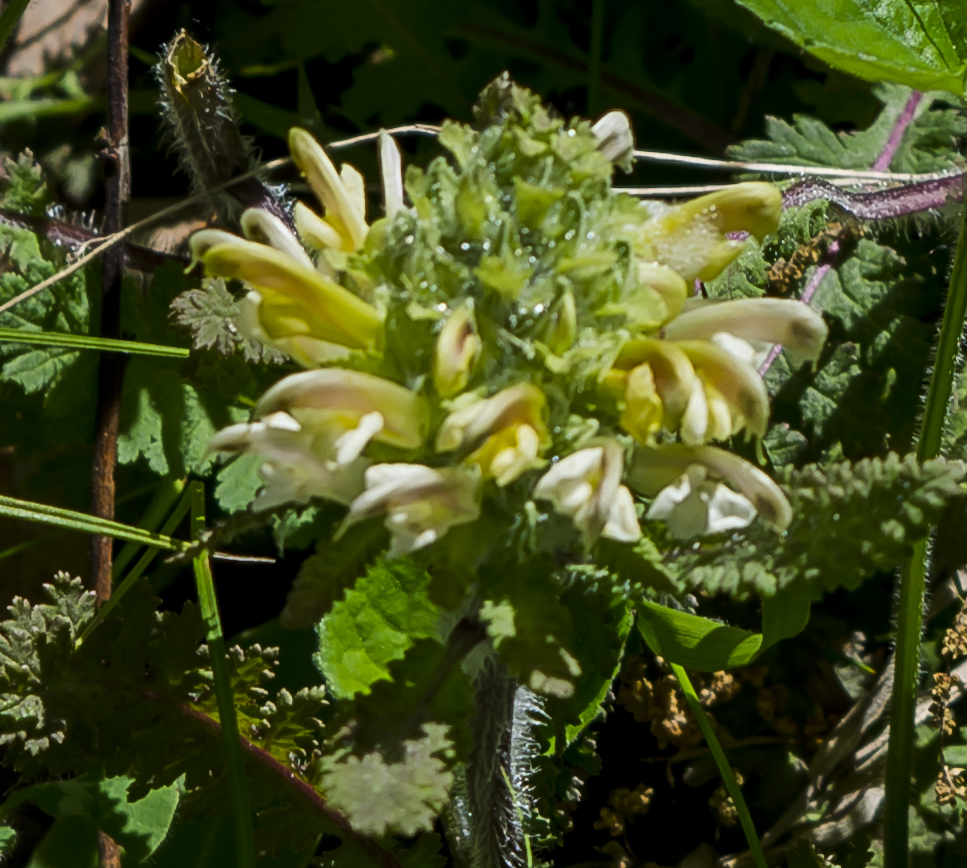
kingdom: Plantae
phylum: Tracheophyta
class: Magnoliopsida
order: Lamiales
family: Orobanchaceae
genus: Pedicularis
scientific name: Pedicularis canadensis
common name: Early lousewort
